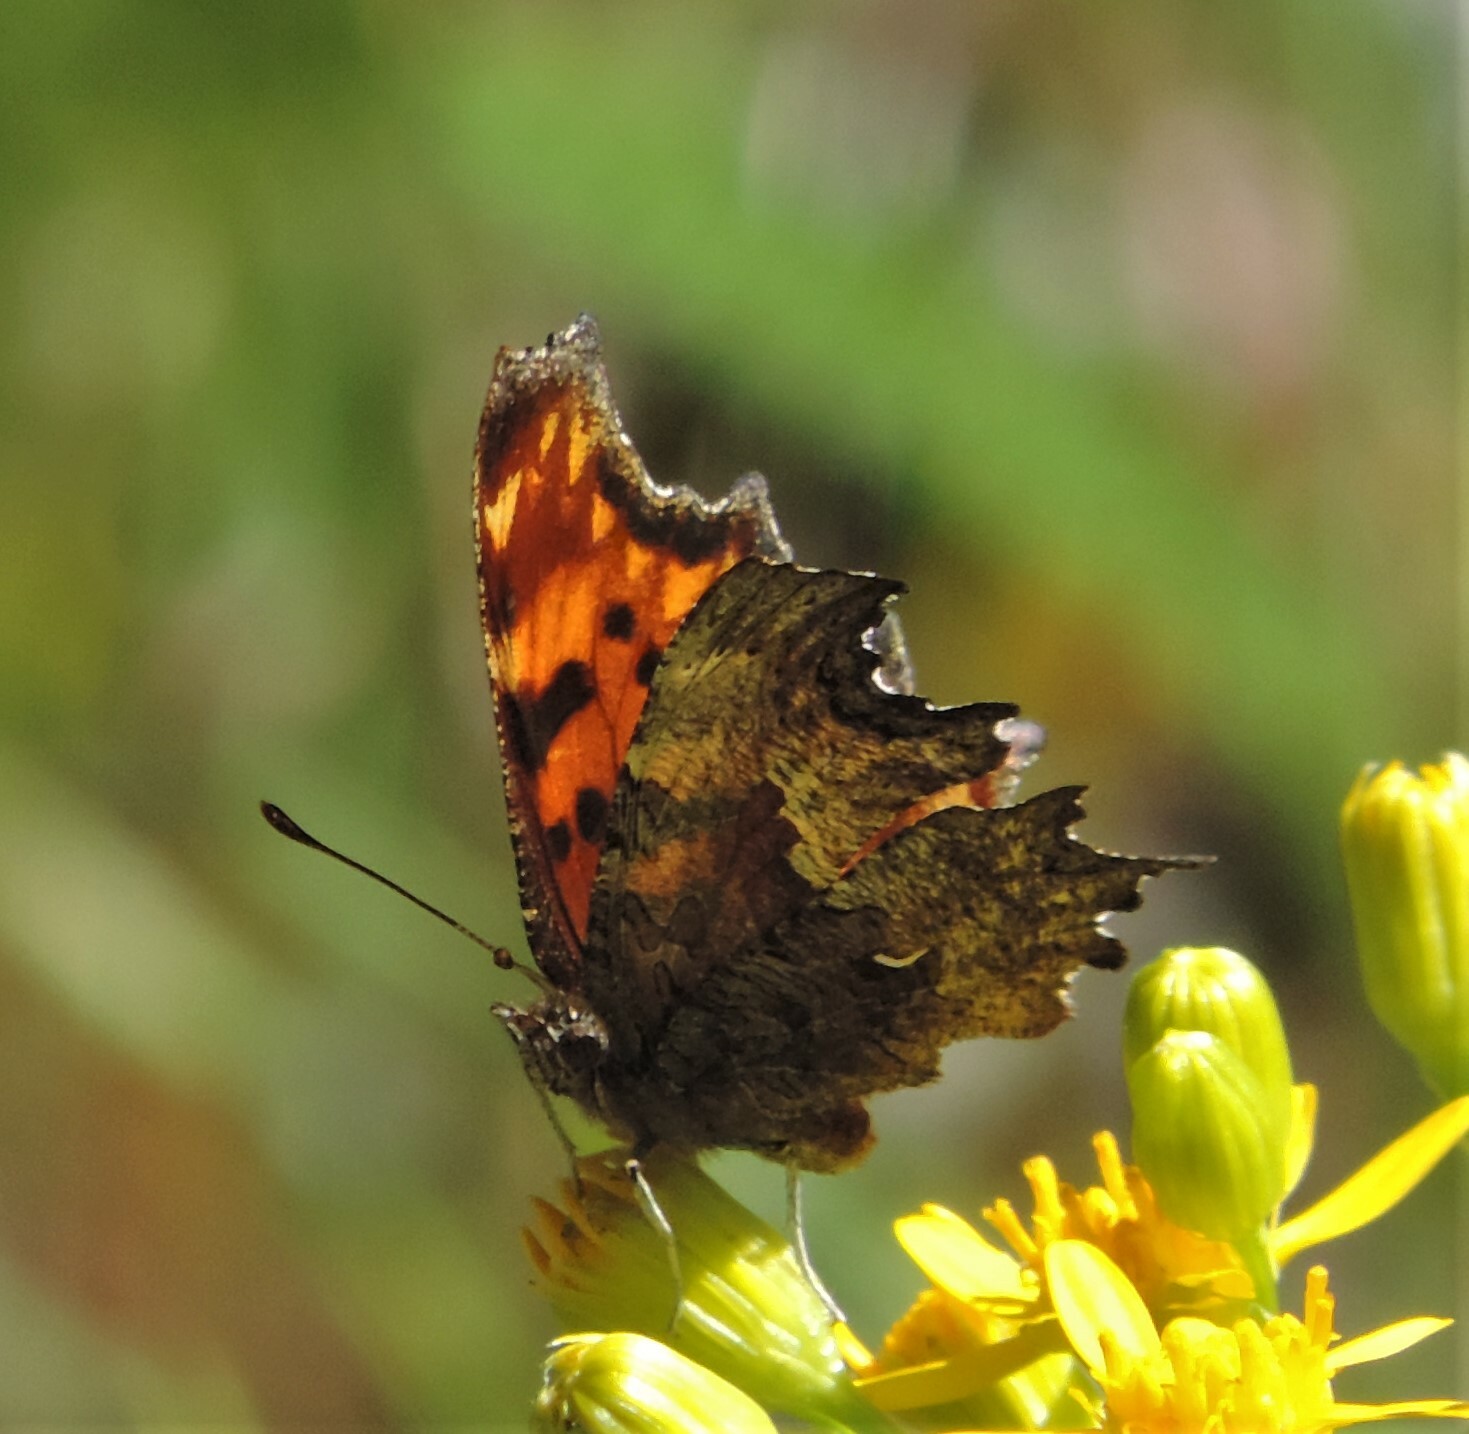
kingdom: Animalia
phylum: Arthropoda
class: Insecta
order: Lepidoptera
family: Nymphalidae
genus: Polygonia
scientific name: Polygonia gracilis
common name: Hoary comma
